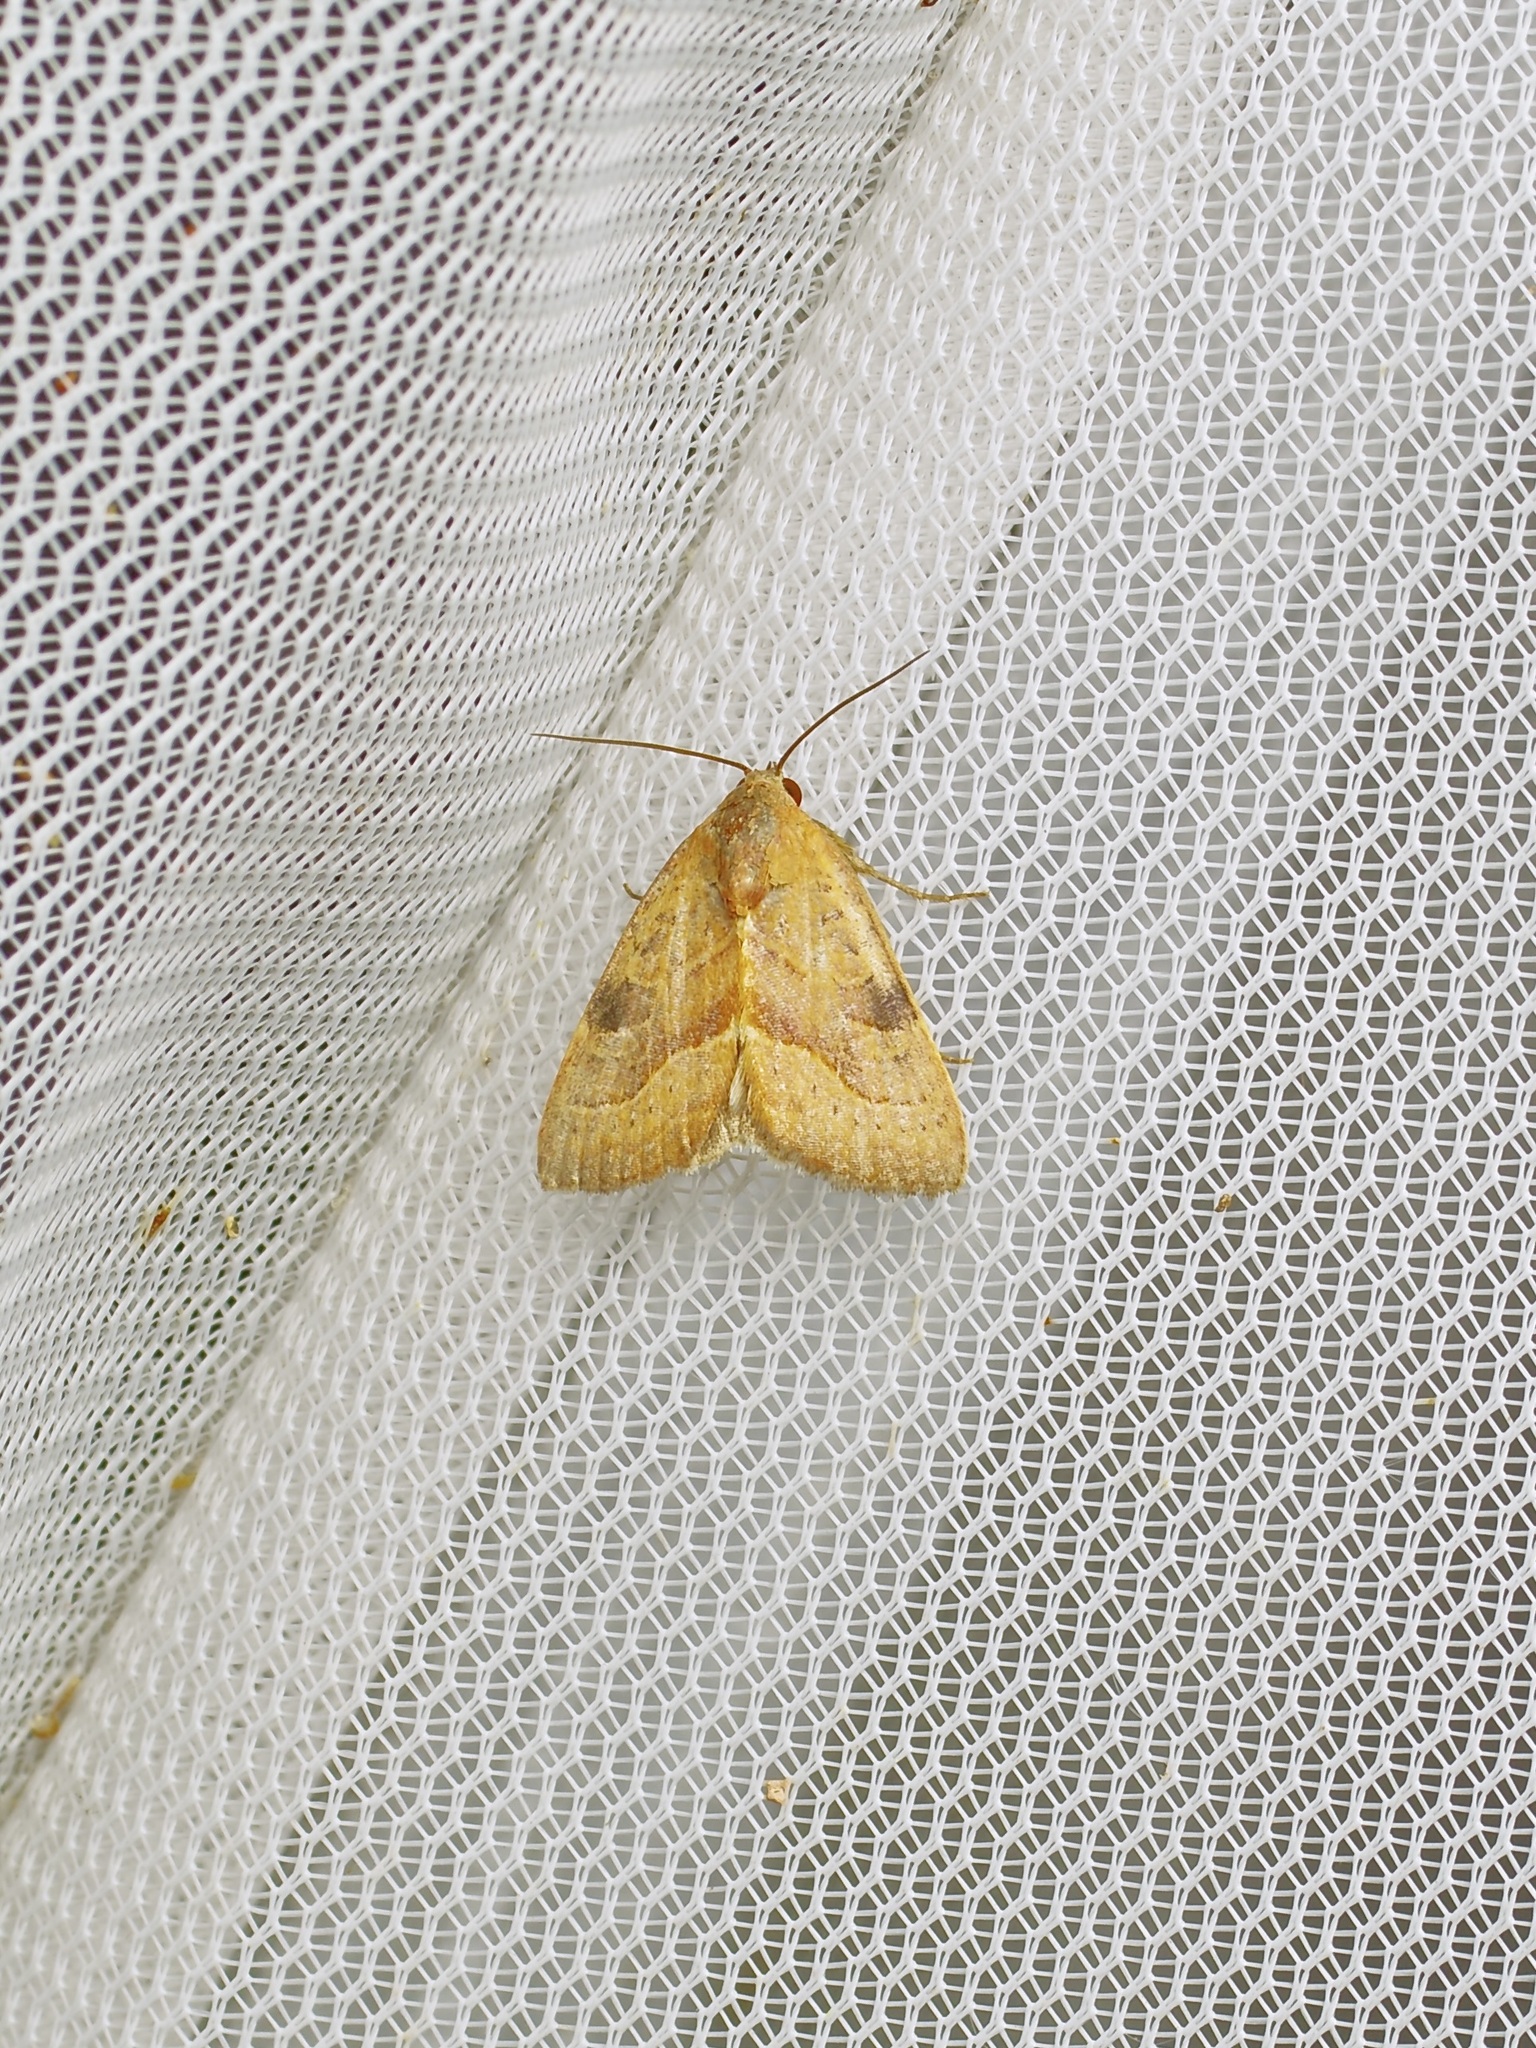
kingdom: Animalia
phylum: Arthropoda
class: Insecta
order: Lepidoptera
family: Noctuidae
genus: Galgula
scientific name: Galgula partita
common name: Wedgeling
